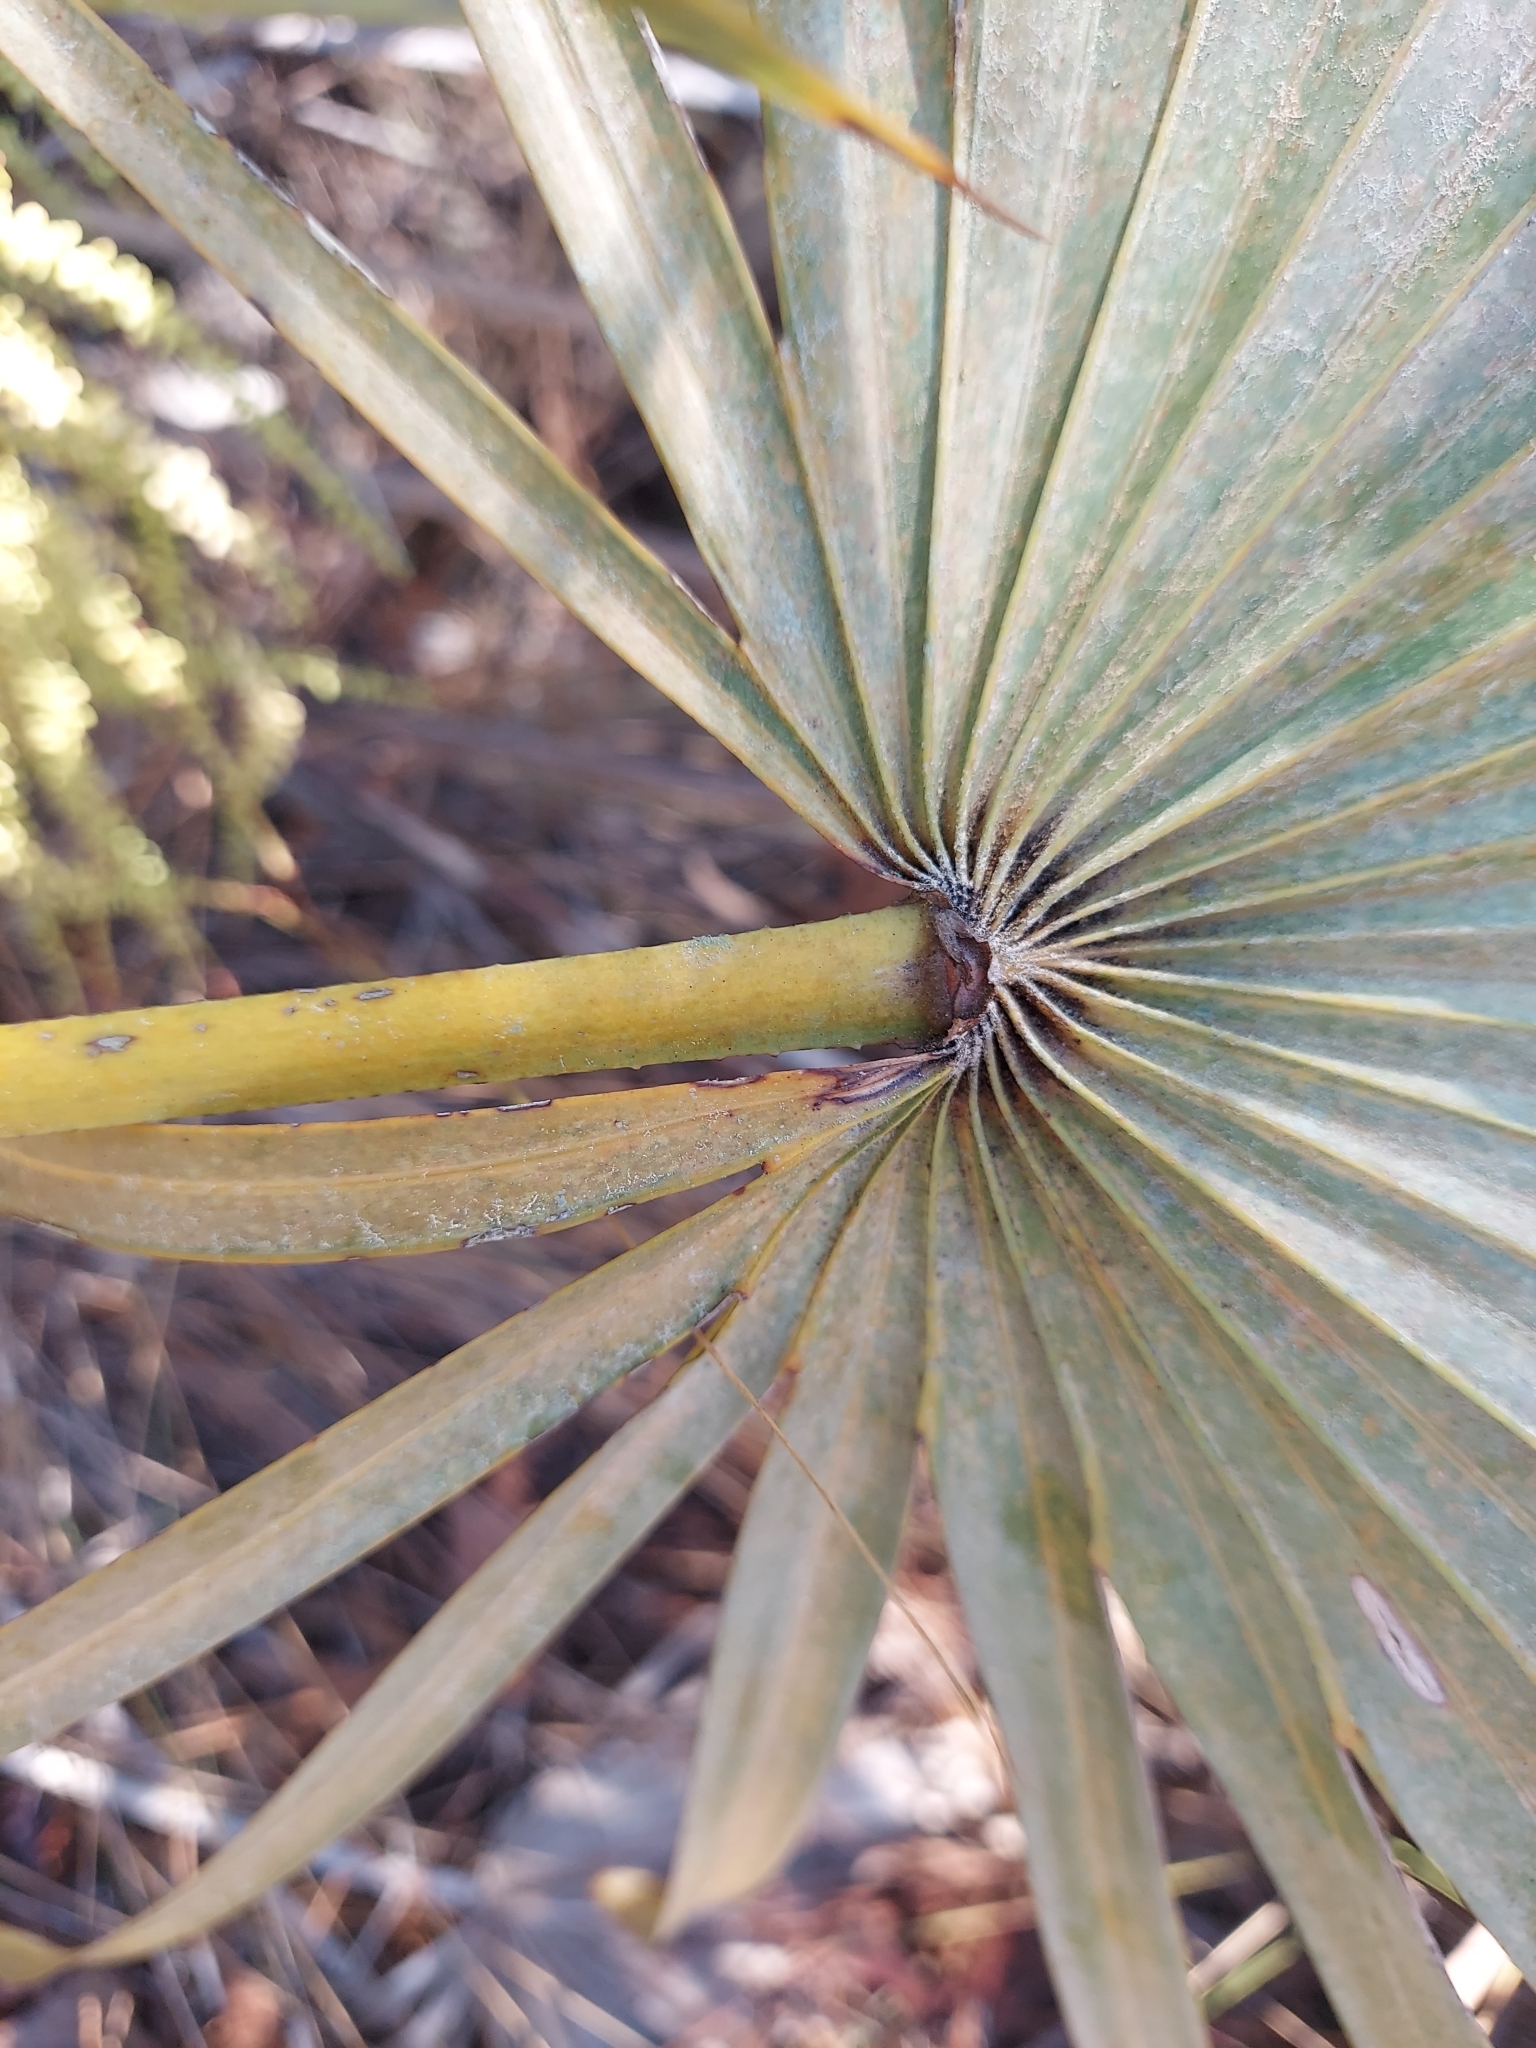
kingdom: Plantae
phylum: Tracheophyta
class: Liliopsida
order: Arecales
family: Arecaceae
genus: Serenoa
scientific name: Serenoa repens
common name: Saw-palmetto
